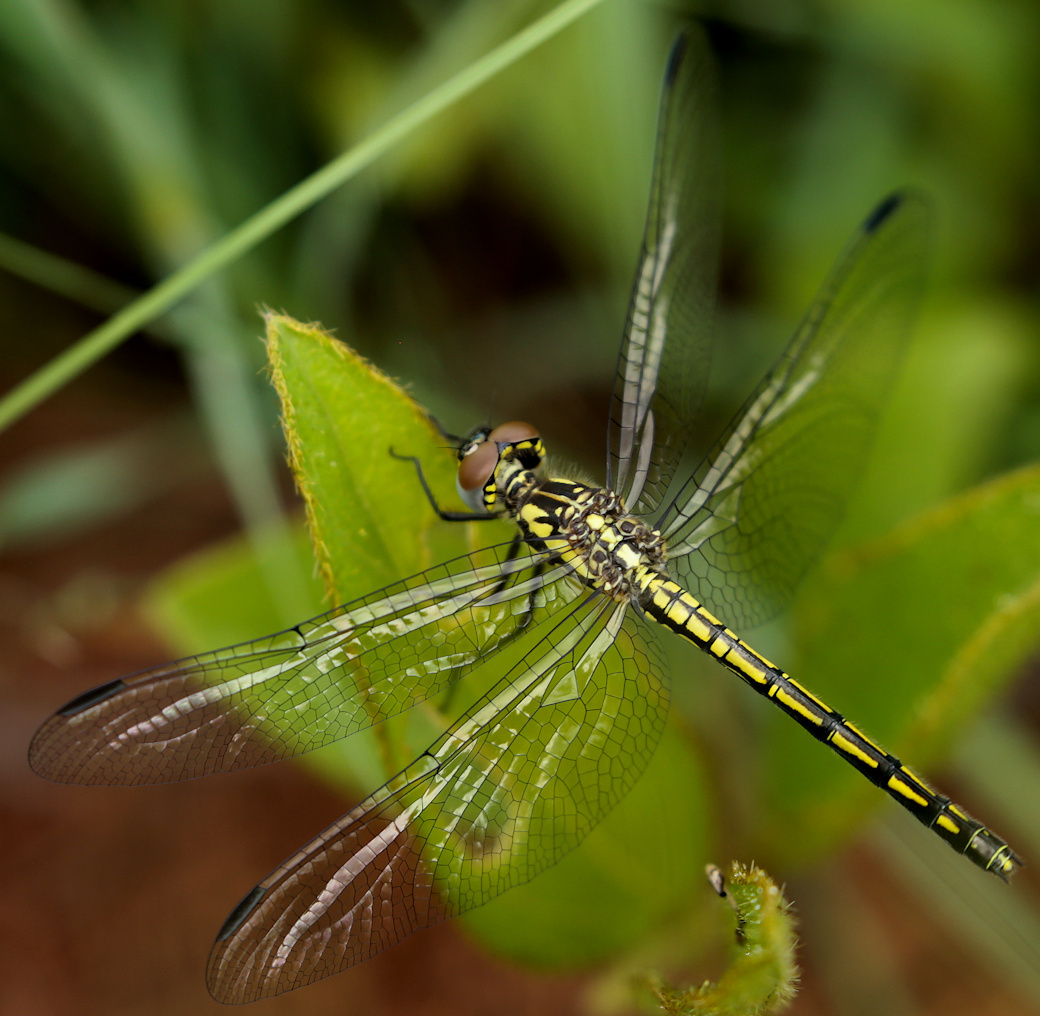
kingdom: Animalia
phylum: Arthropoda
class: Insecta
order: Odonata
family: Libellulidae
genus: Trithemis
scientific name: Trithemis stictica
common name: Jaunty dropwing
